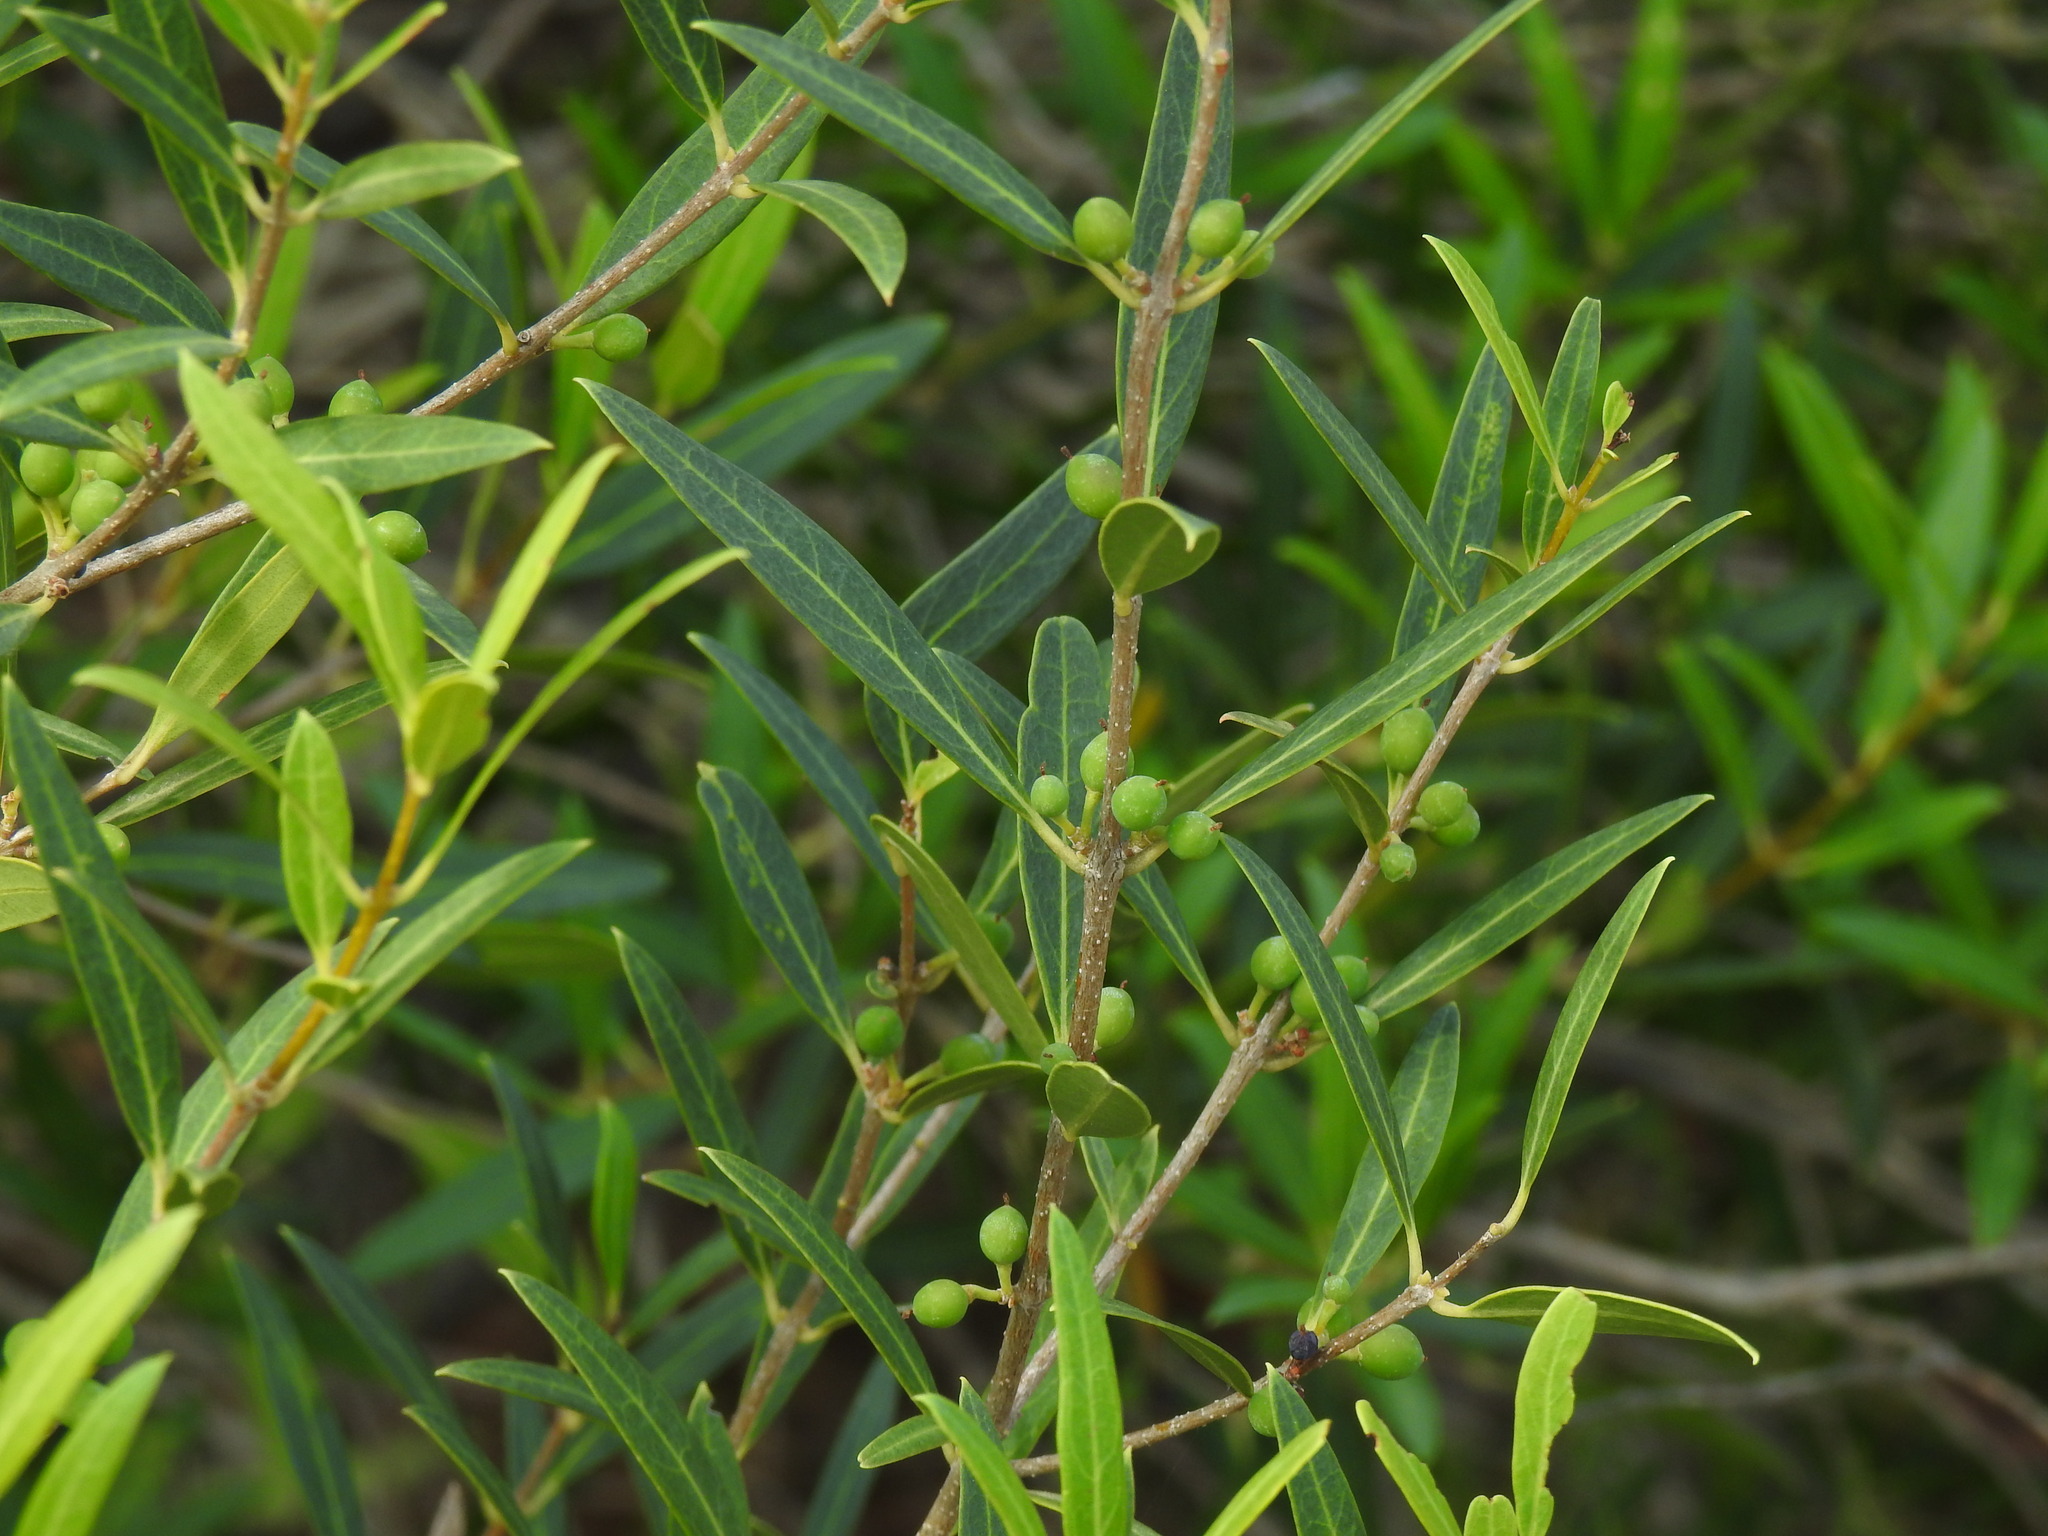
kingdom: Plantae
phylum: Tracheophyta
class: Magnoliopsida
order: Lamiales
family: Oleaceae
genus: Phillyrea
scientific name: Phillyrea angustifolia
